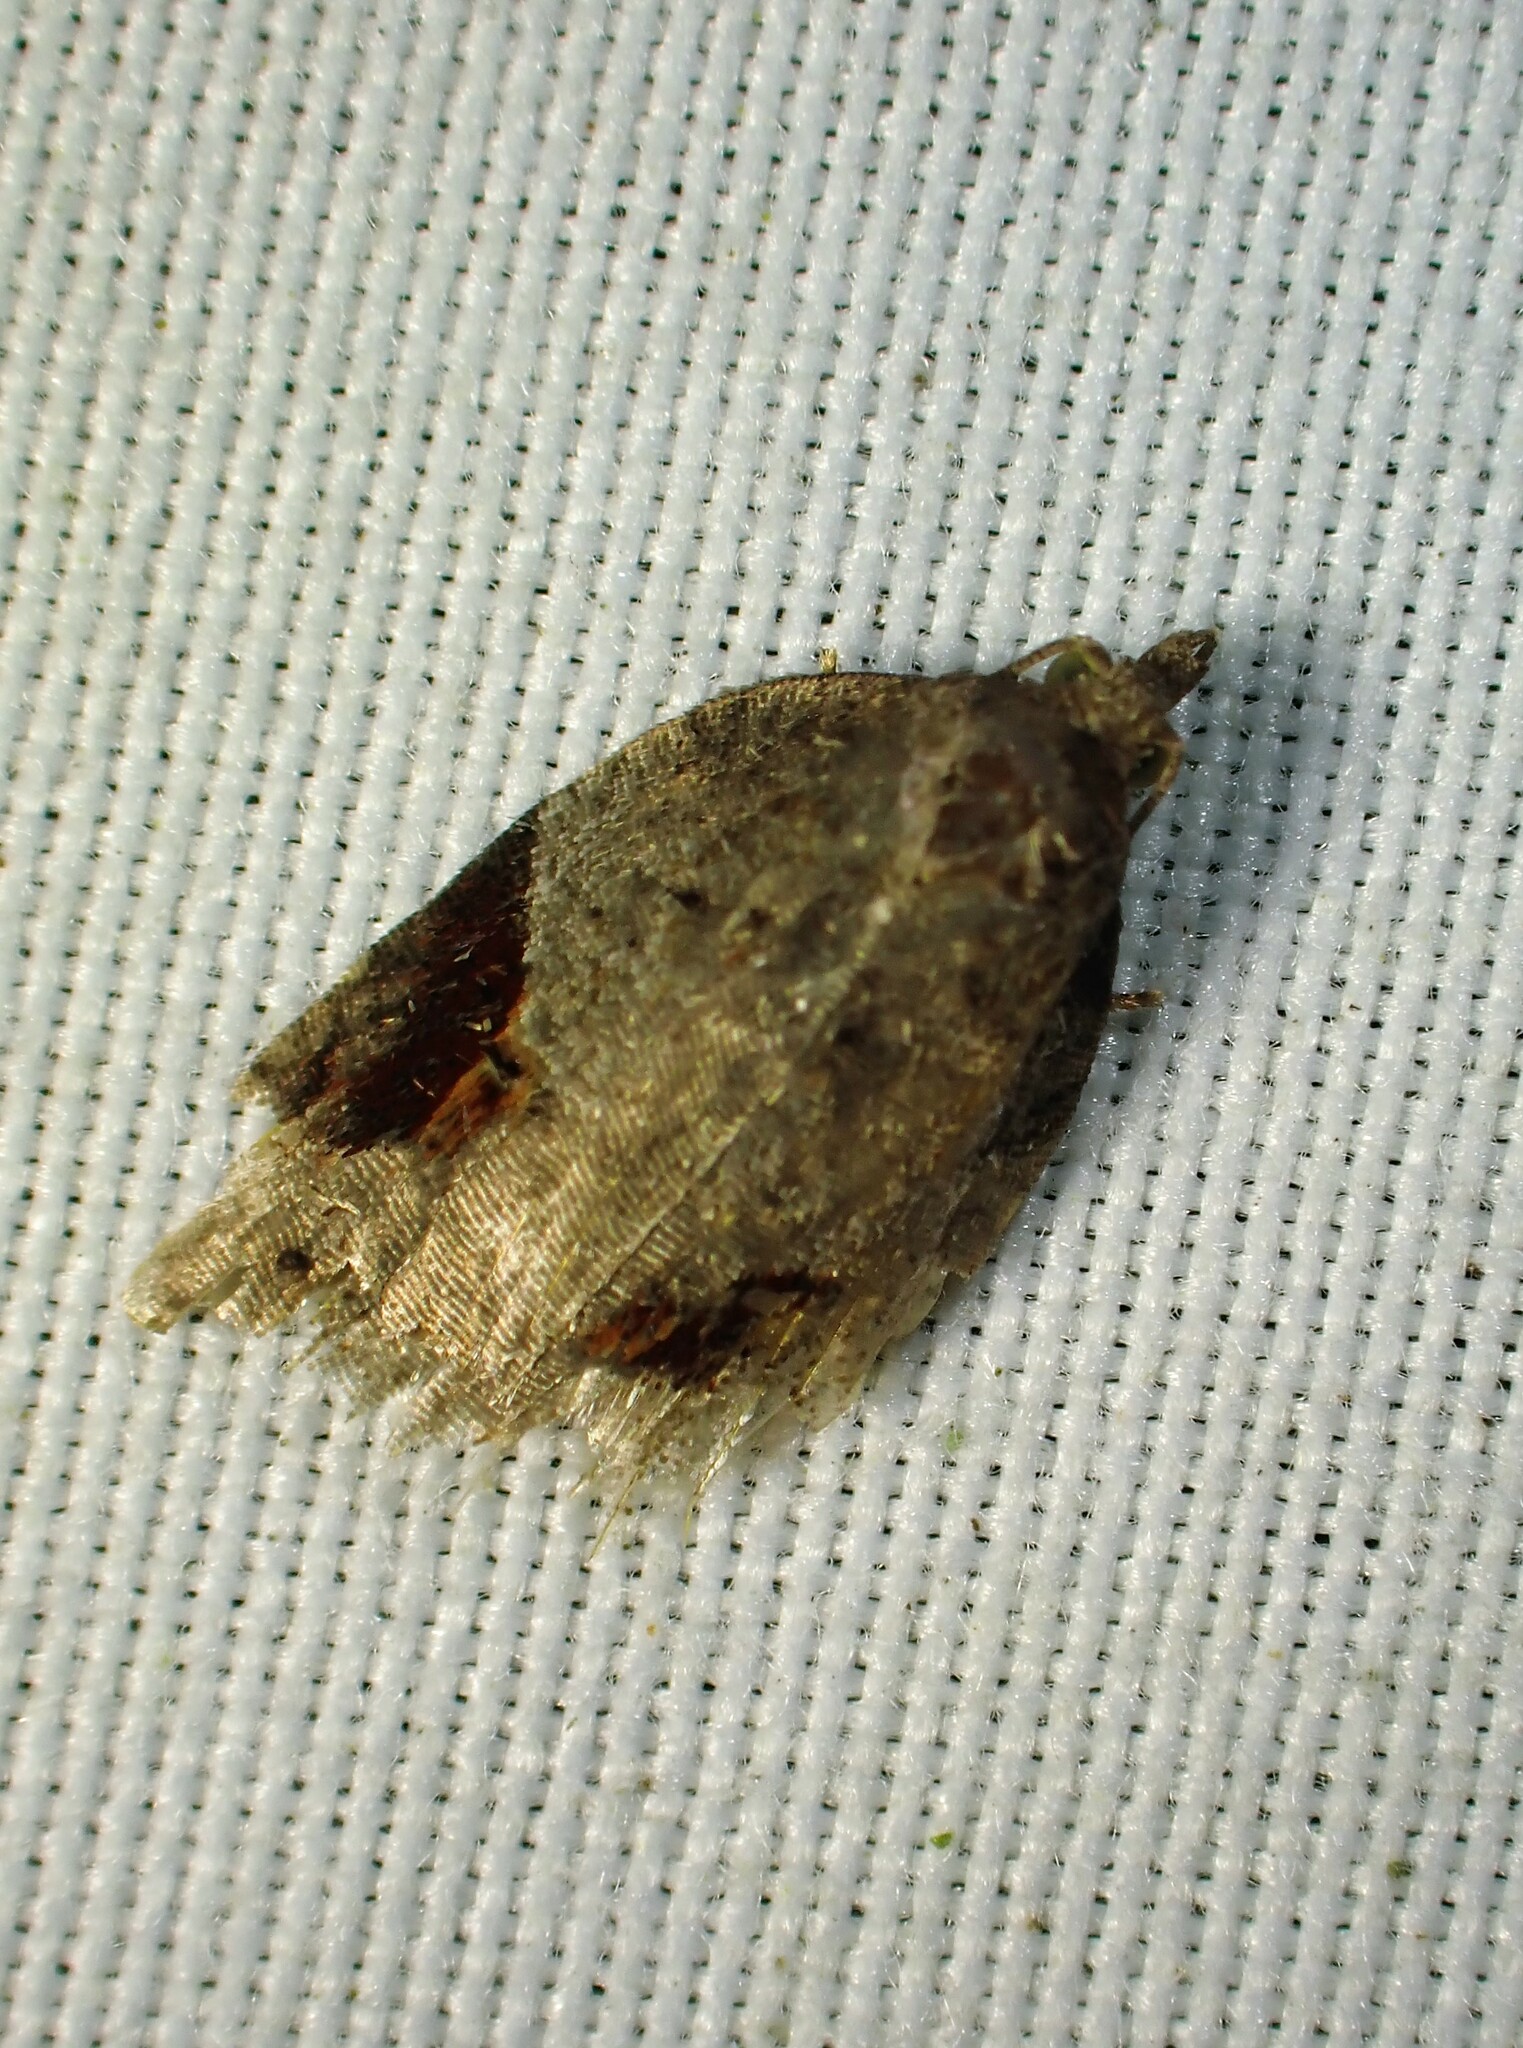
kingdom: Animalia
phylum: Arthropoda
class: Insecta
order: Lepidoptera
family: Tortricidae
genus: Acleris
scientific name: Acleris macdunnoughi
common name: Macdunnough's acleris
